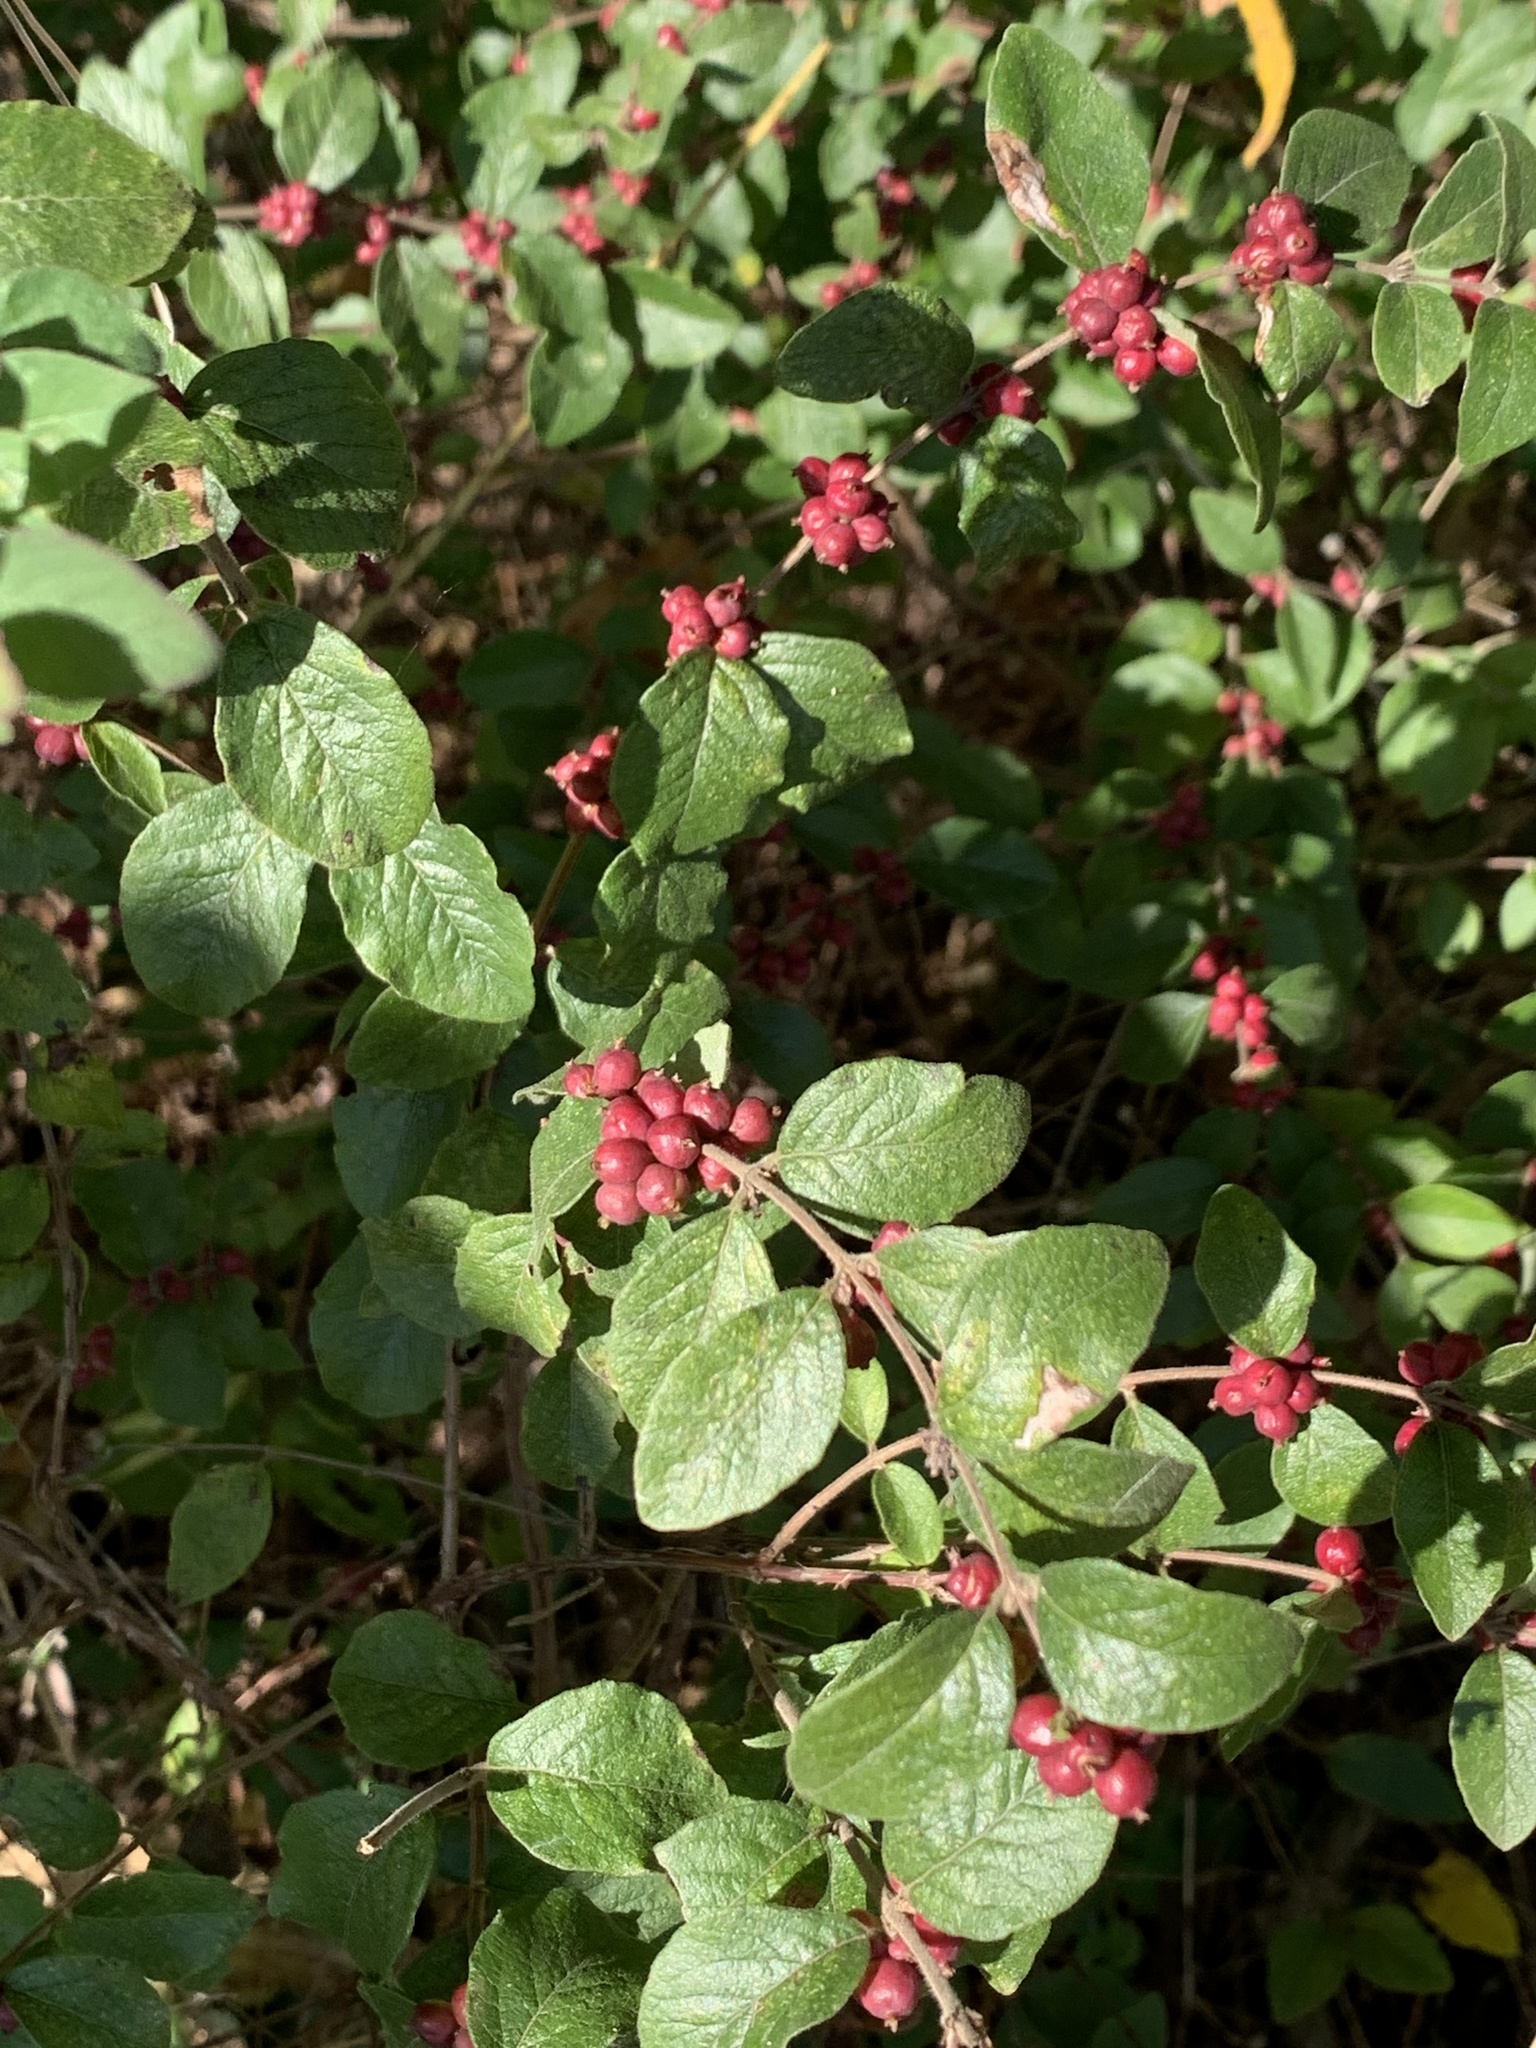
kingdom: Plantae
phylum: Tracheophyta
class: Magnoliopsida
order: Dipsacales
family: Caprifoliaceae
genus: Symphoricarpos
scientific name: Symphoricarpos orbiculatus
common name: Coralberry
